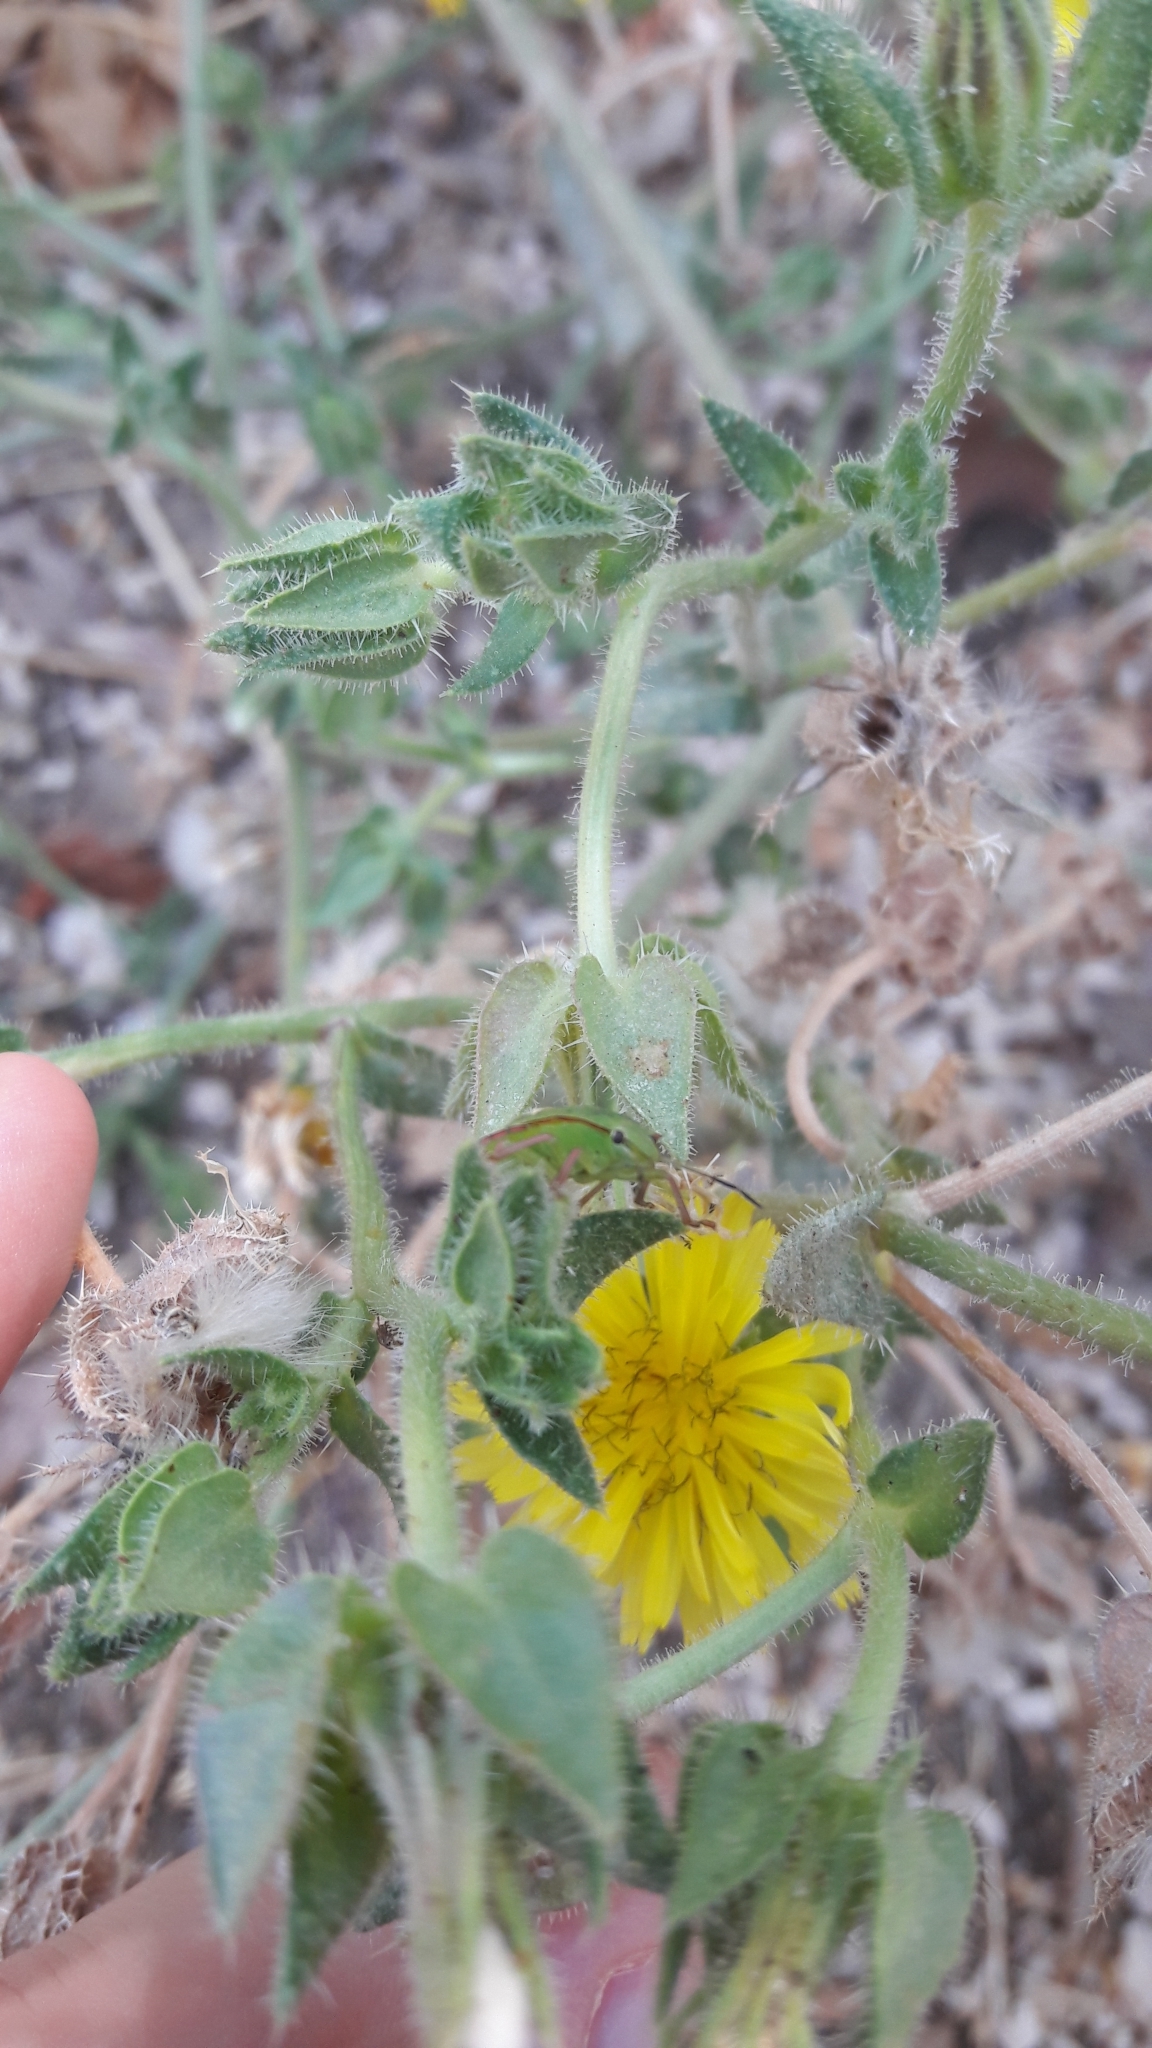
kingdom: Animalia
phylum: Arthropoda
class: Insecta
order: Hemiptera
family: Pentatomidae
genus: Nezara
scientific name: Nezara viridula
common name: Southern green stink bug
